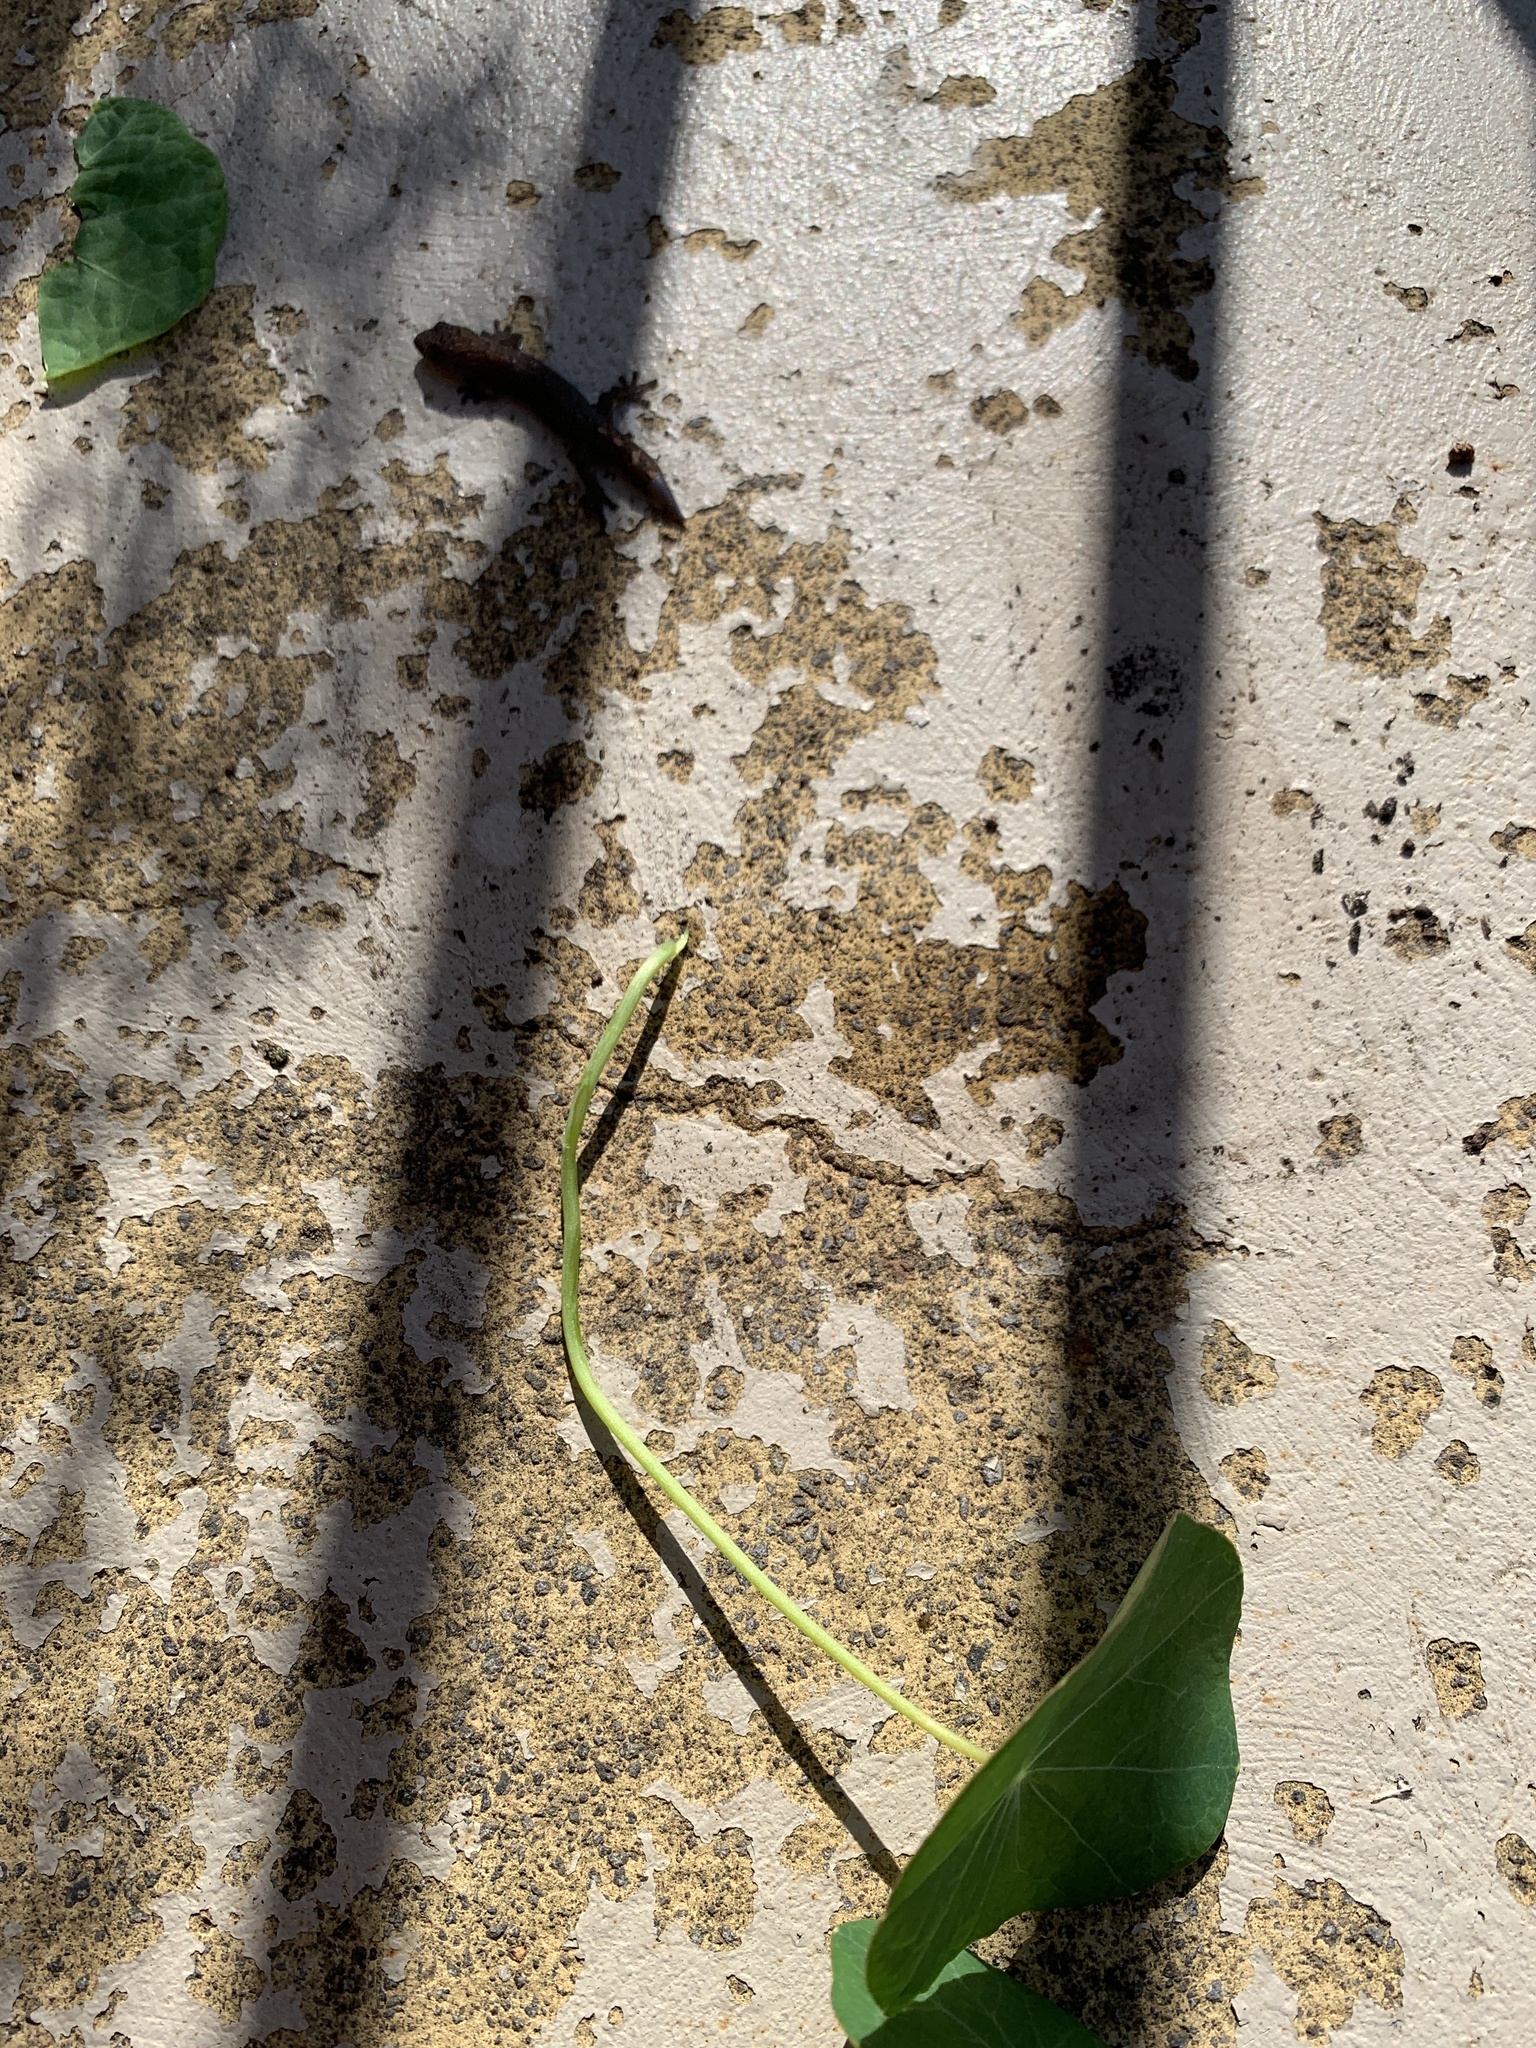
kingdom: Animalia
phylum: Chordata
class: Squamata
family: Gekkonidae
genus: Christinus
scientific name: Christinus marmoratus
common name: Marbled gecko
